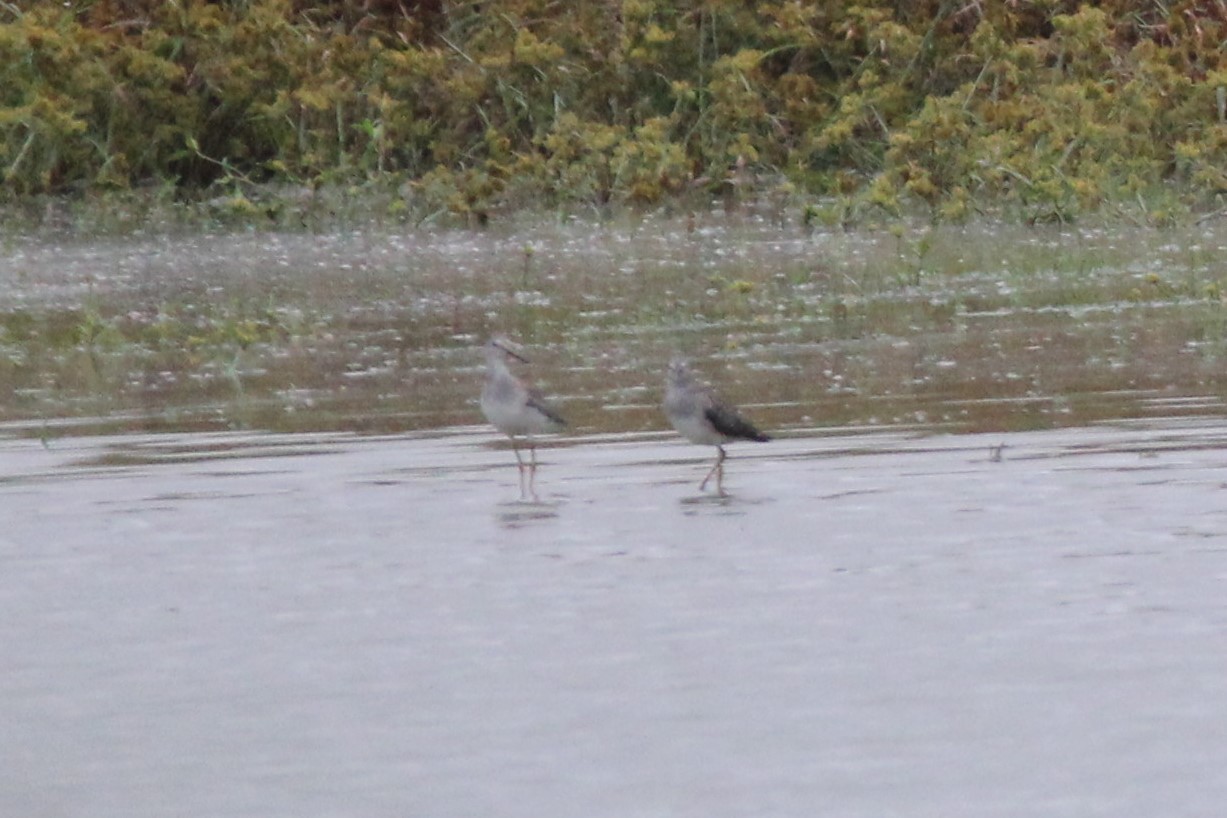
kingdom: Animalia
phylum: Chordata
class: Aves
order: Charadriiformes
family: Scolopacidae
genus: Tringa
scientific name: Tringa flavipes
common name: Lesser yellowlegs
